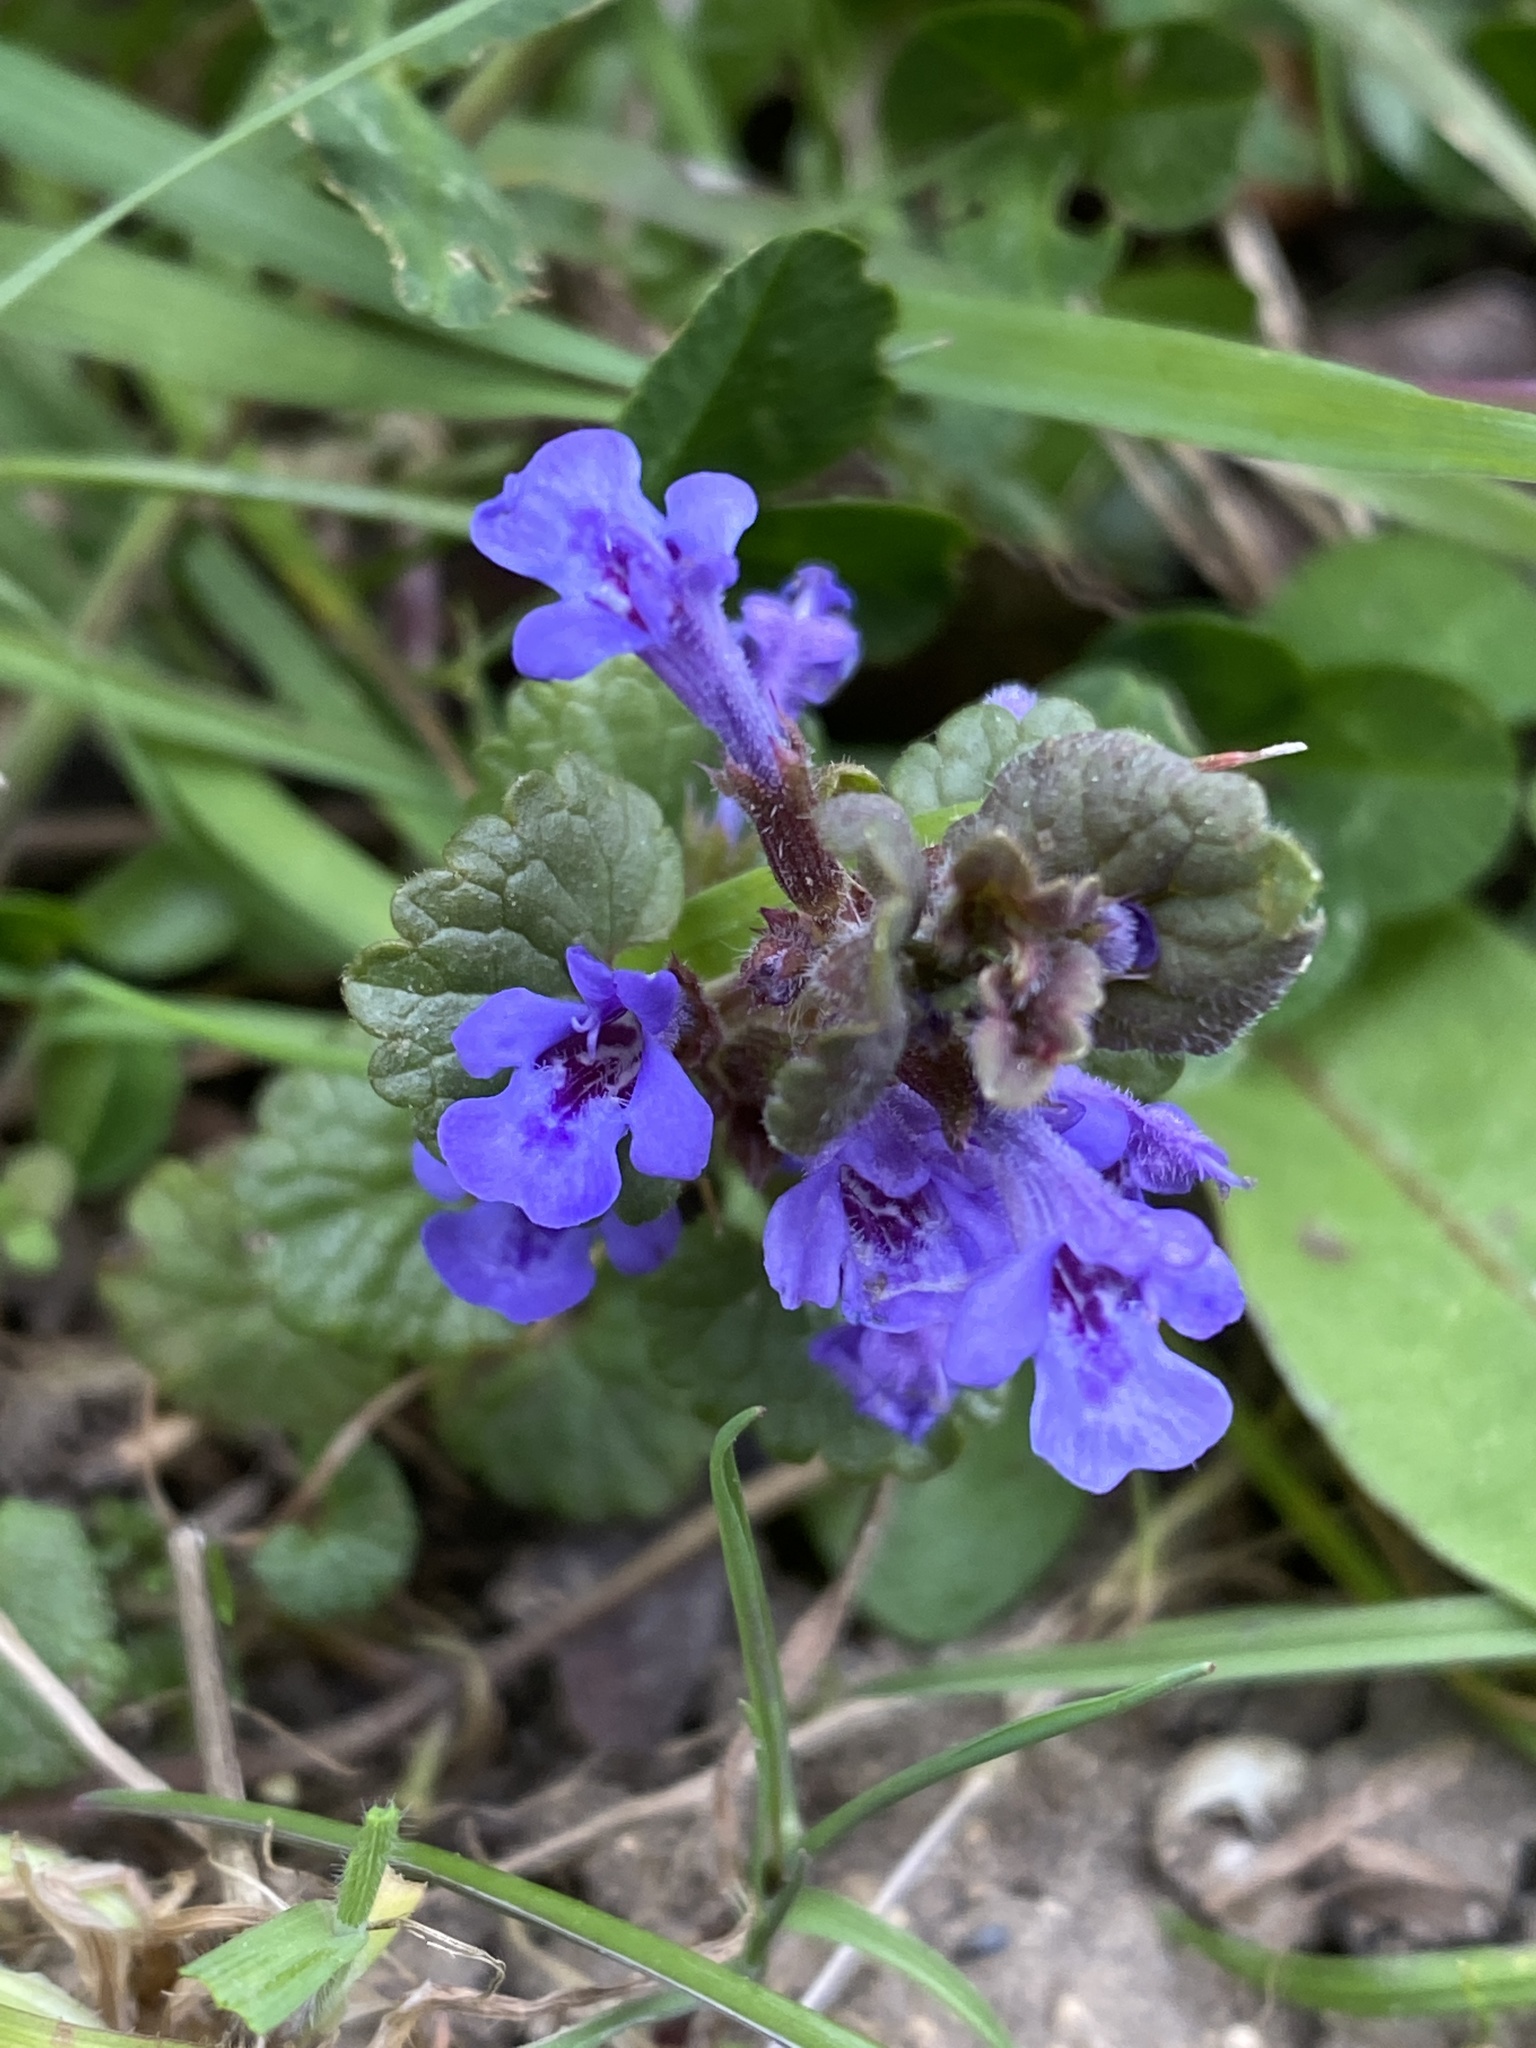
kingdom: Plantae
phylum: Tracheophyta
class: Magnoliopsida
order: Lamiales
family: Lamiaceae
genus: Glechoma
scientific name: Glechoma hederacea
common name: Ground ivy
